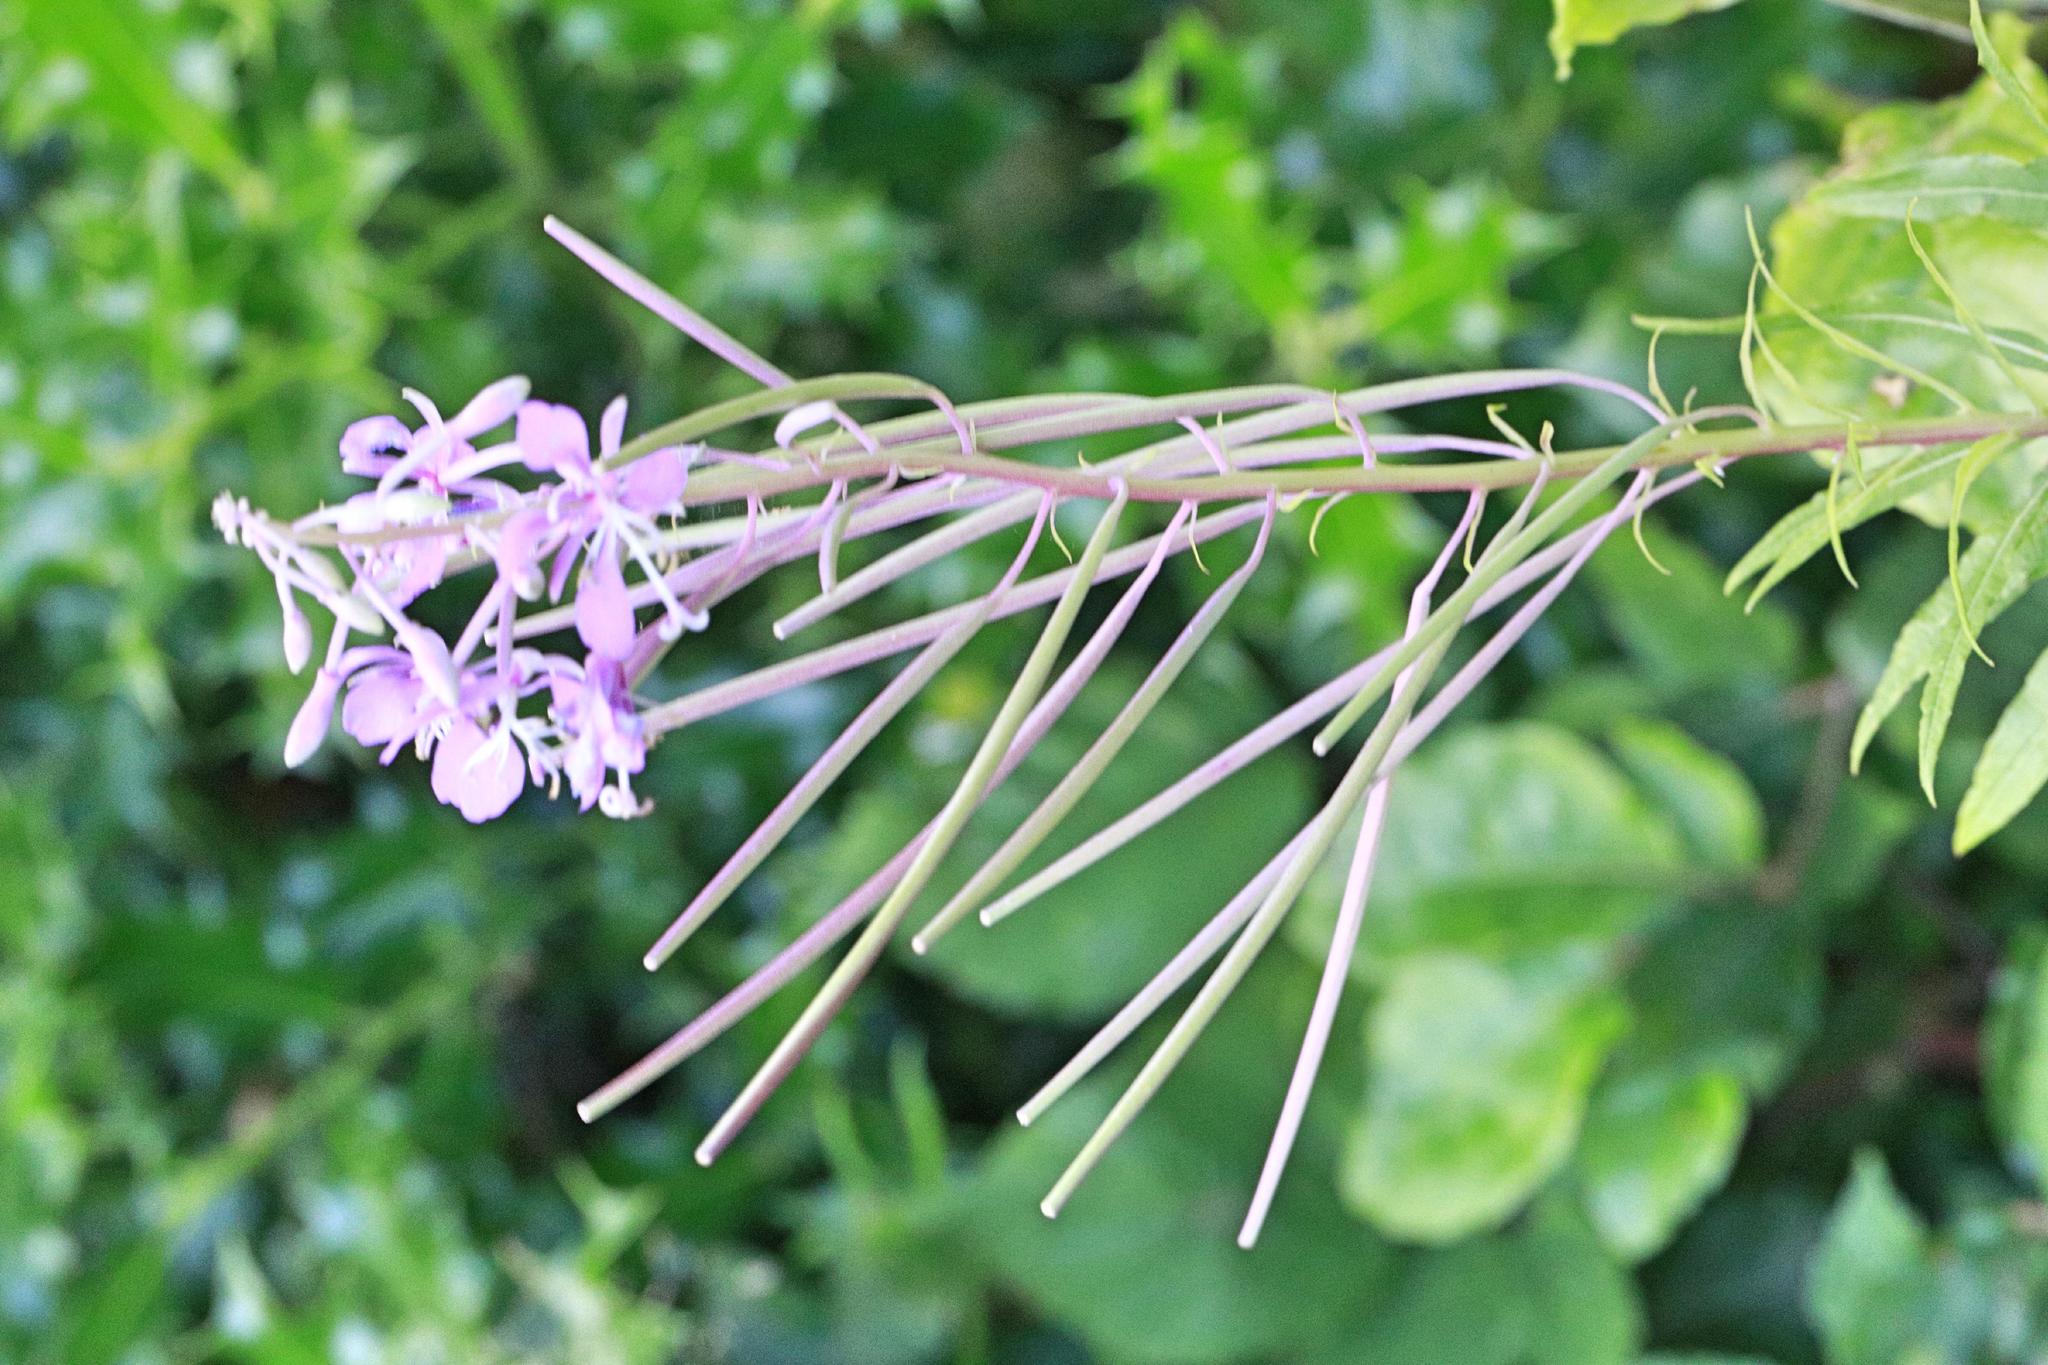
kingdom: Plantae
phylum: Tracheophyta
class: Magnoliopsida
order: Myrtales
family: Onagraceae
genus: Chamaenerion
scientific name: Chamaenerion angustifolium
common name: Fireweed
